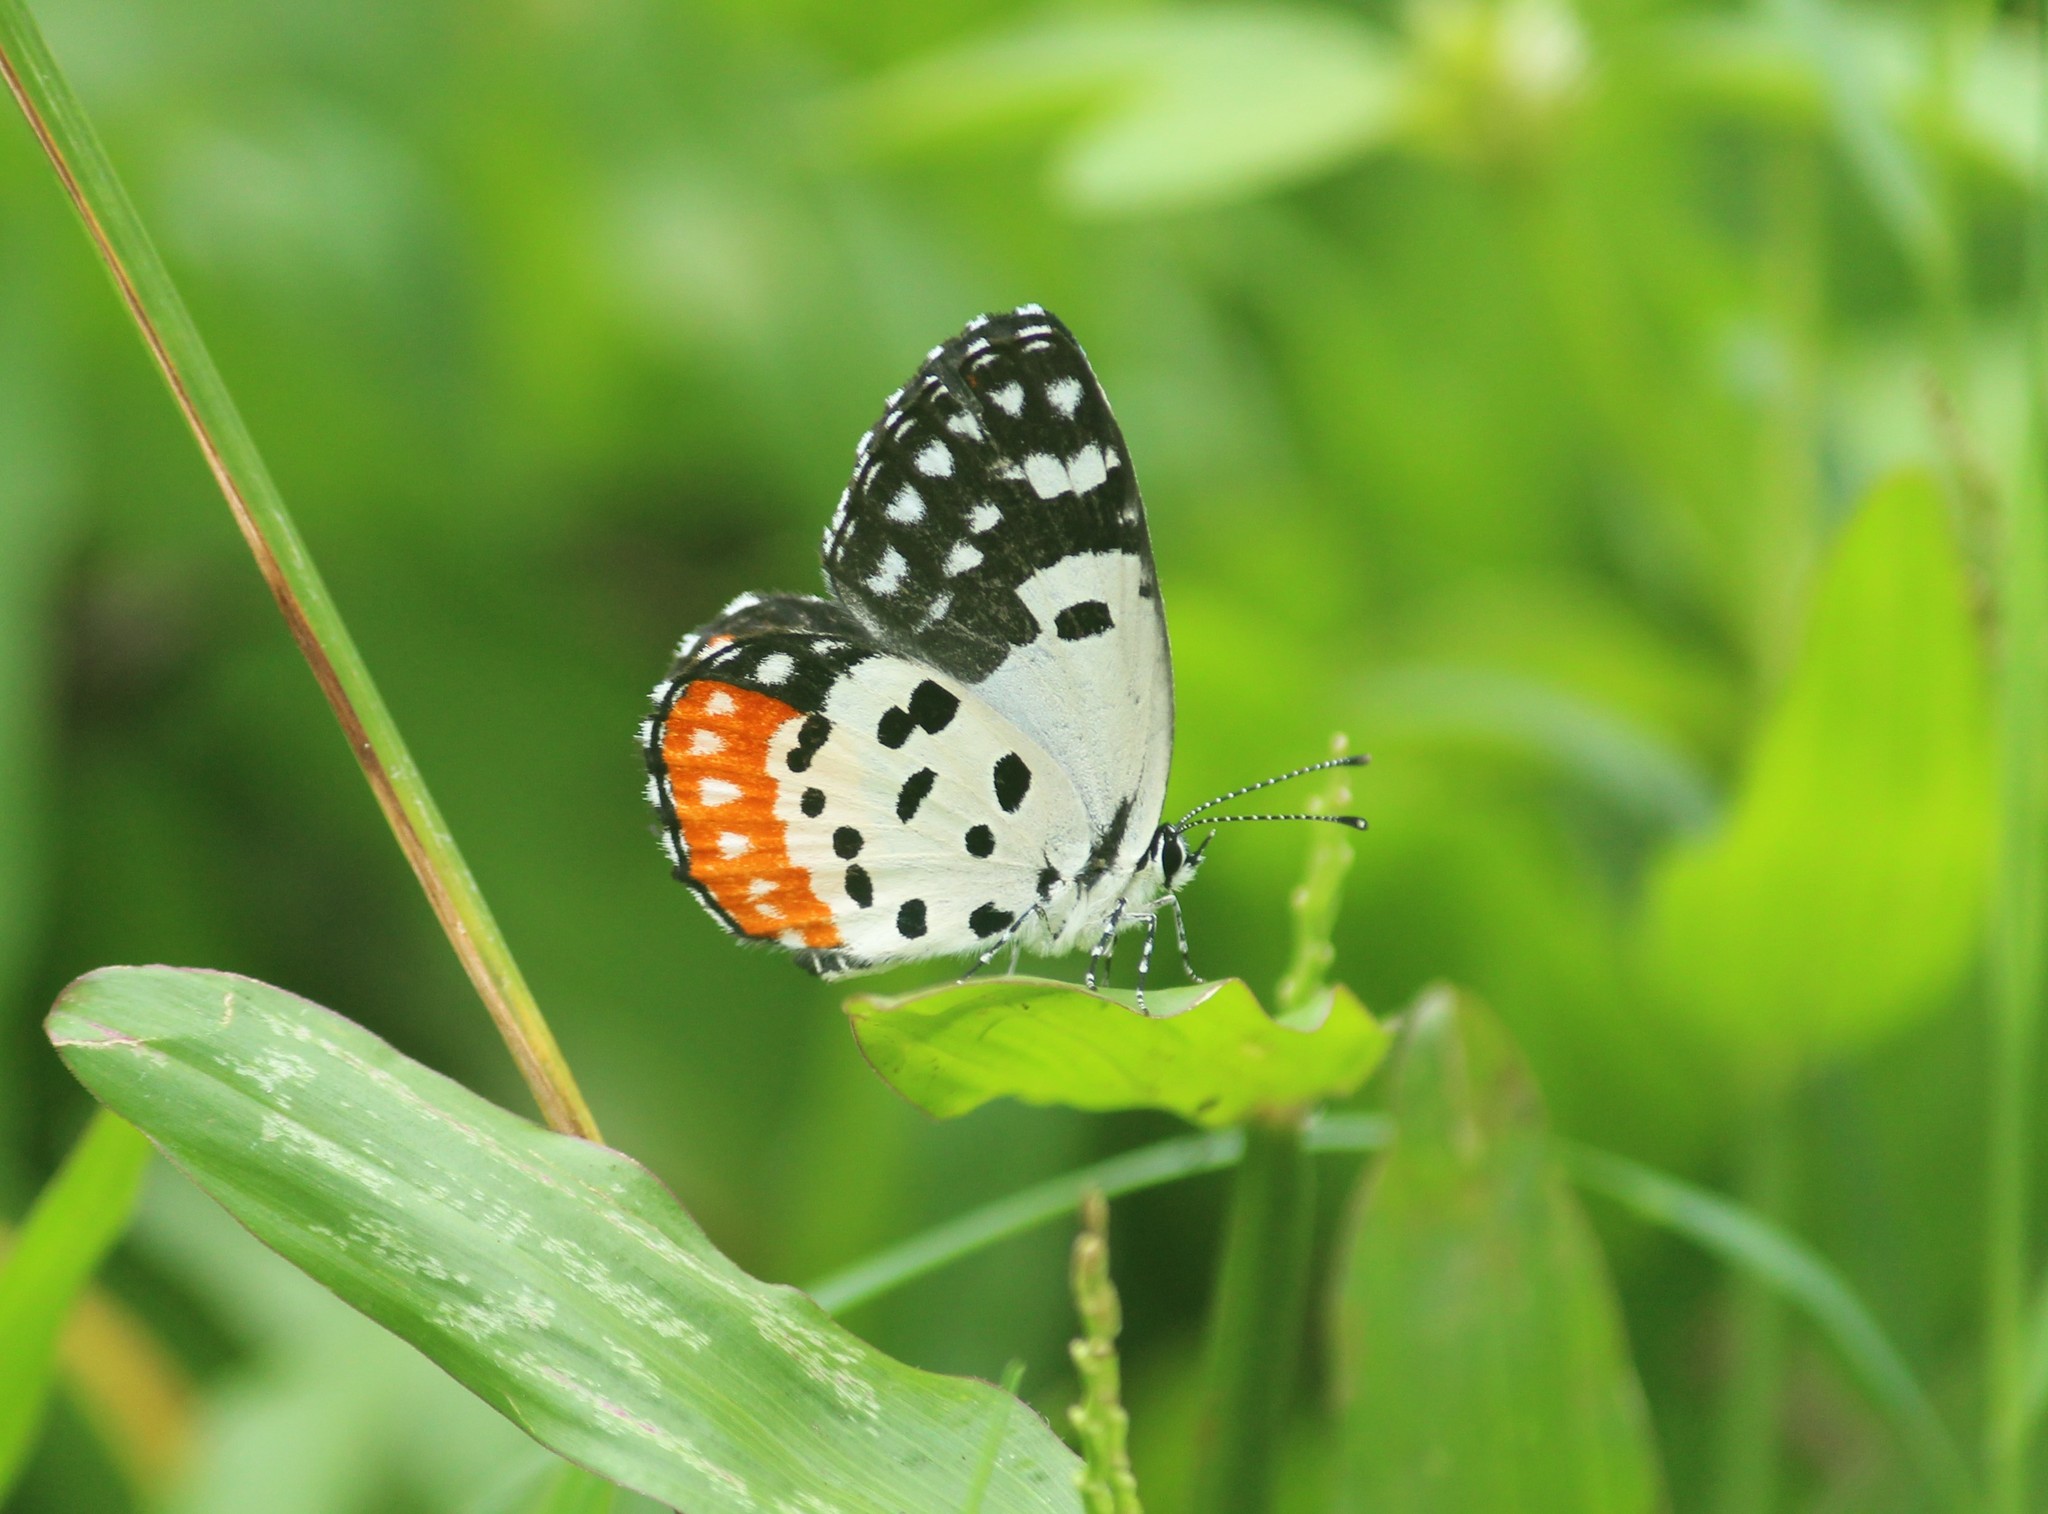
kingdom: Animalia
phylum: Arthropoda
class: Insecta
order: Lepidoptera
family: Lycaenidae
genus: Talicada
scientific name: Talicada nyseus
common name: Red pierrot
